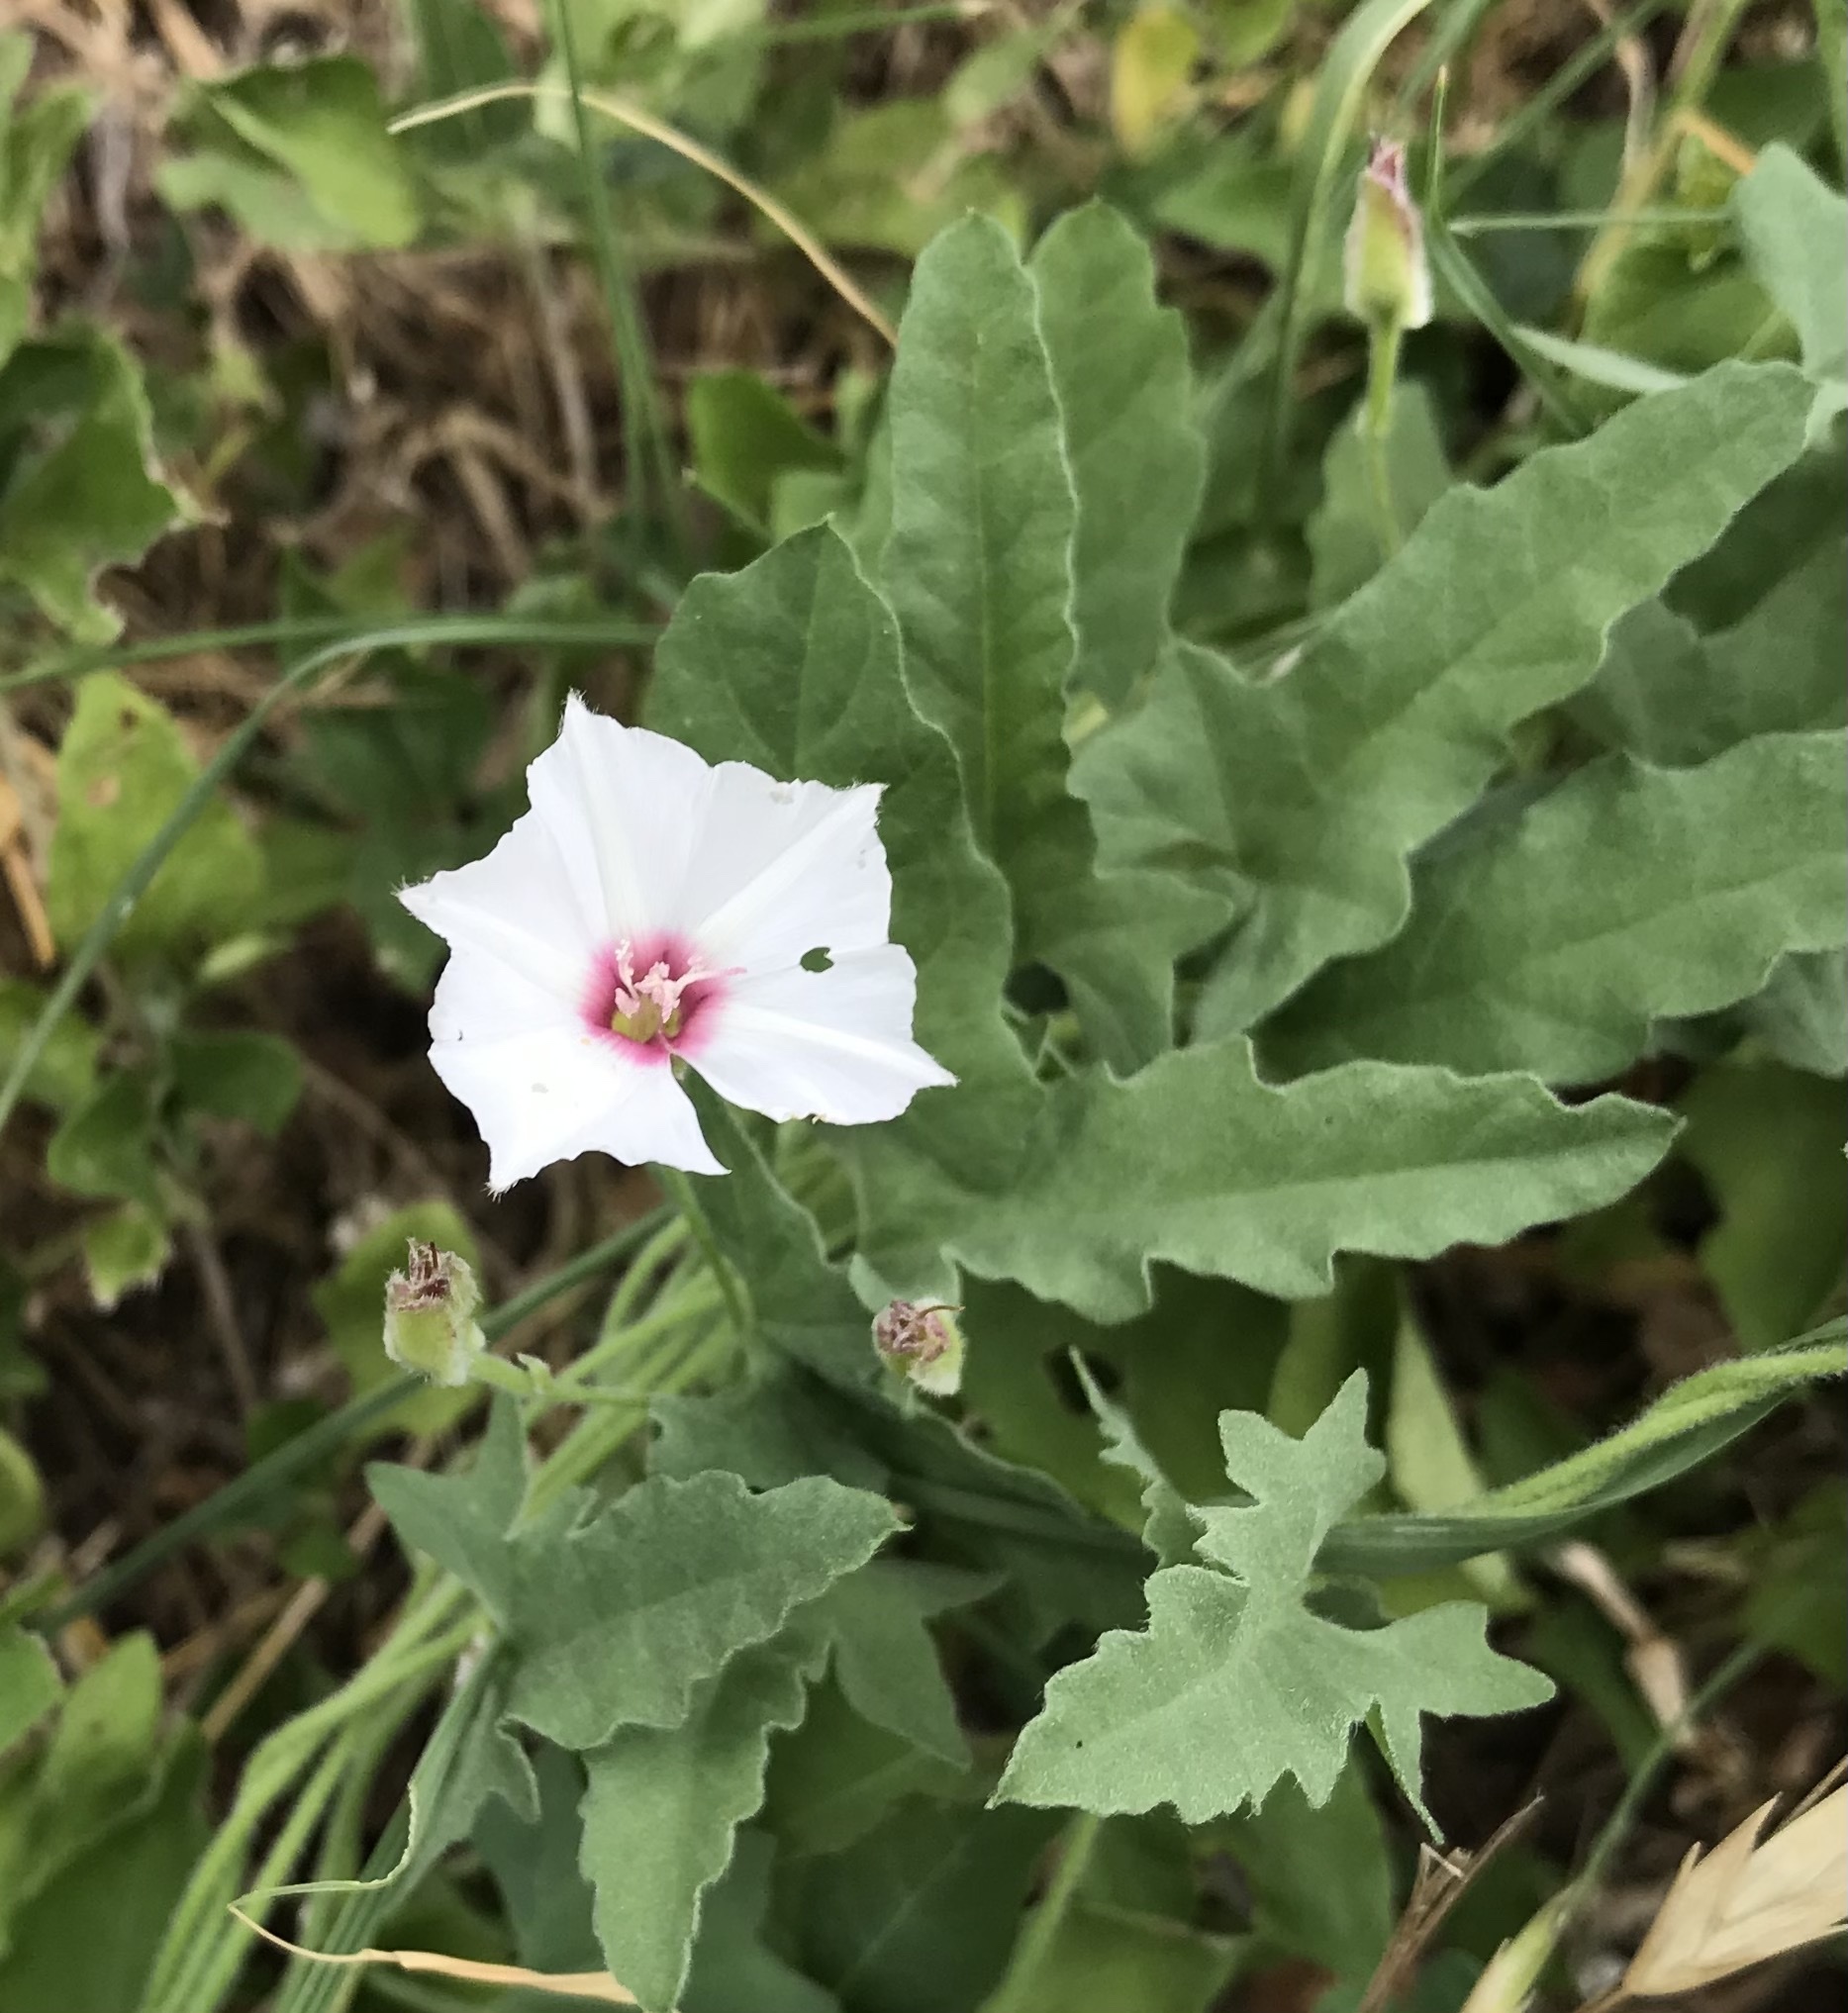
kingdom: Plantae
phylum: Tracheophyta
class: Magnoliopsida
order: Solanales
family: Convolvulaceae
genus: Convolvulus
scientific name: Convolvulus equitans
